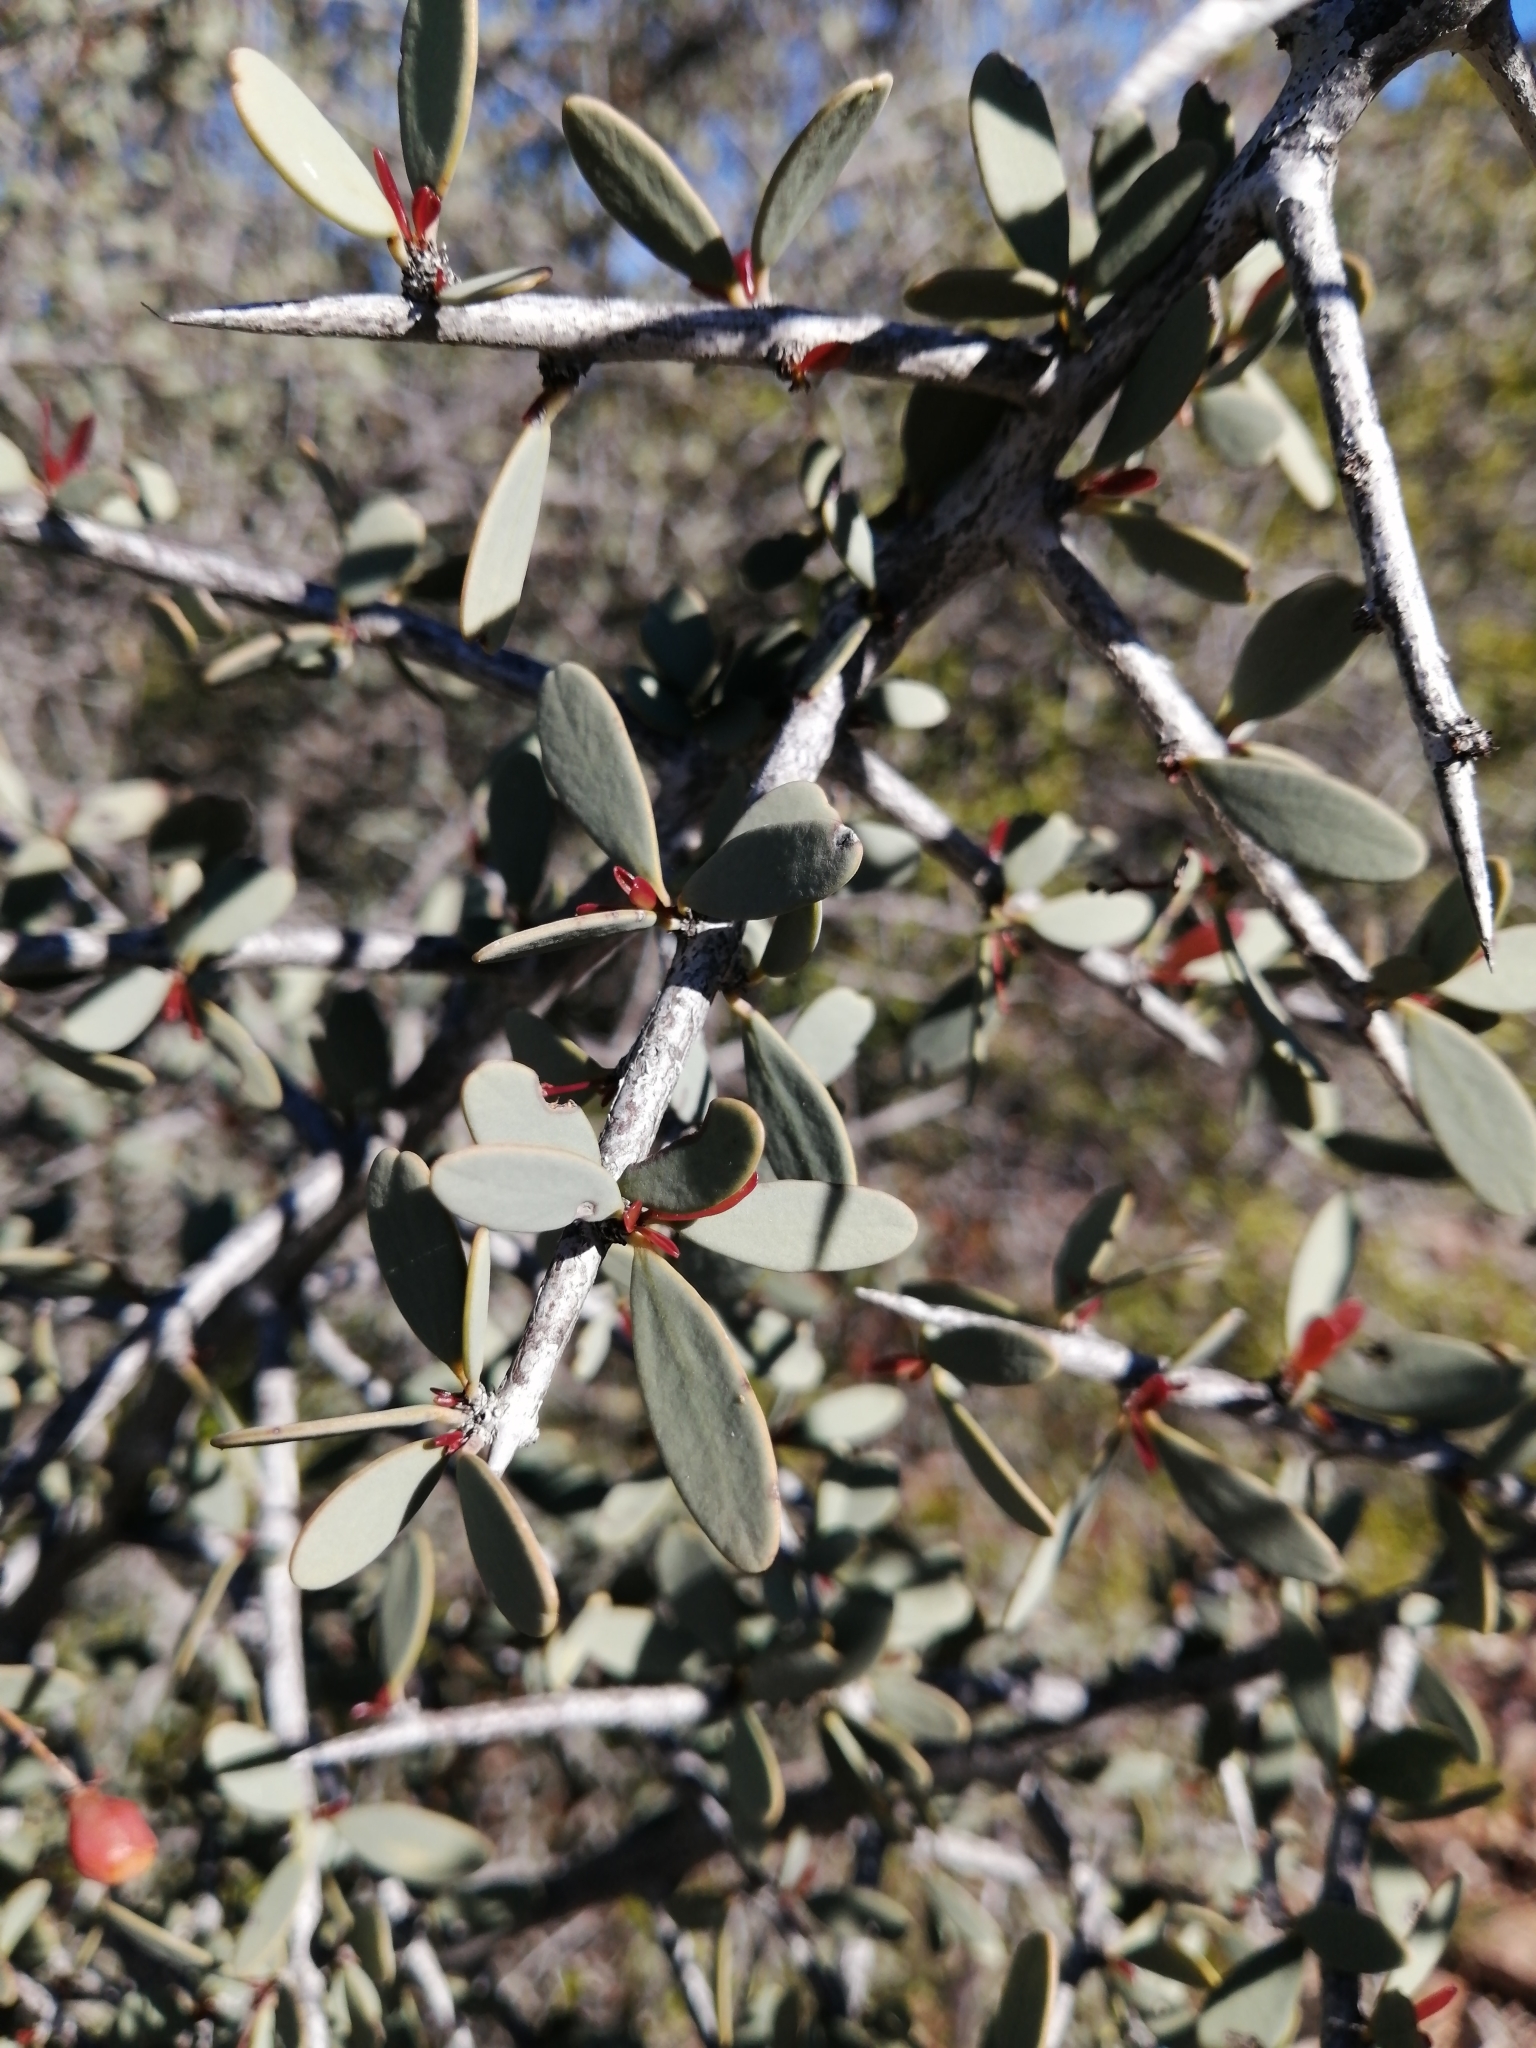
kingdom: Plantae
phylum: Tracheophyta
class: Magnoliopsida
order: Celastrales
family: Celastraceae
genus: Gloveria
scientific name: Gloveria integrifolia
